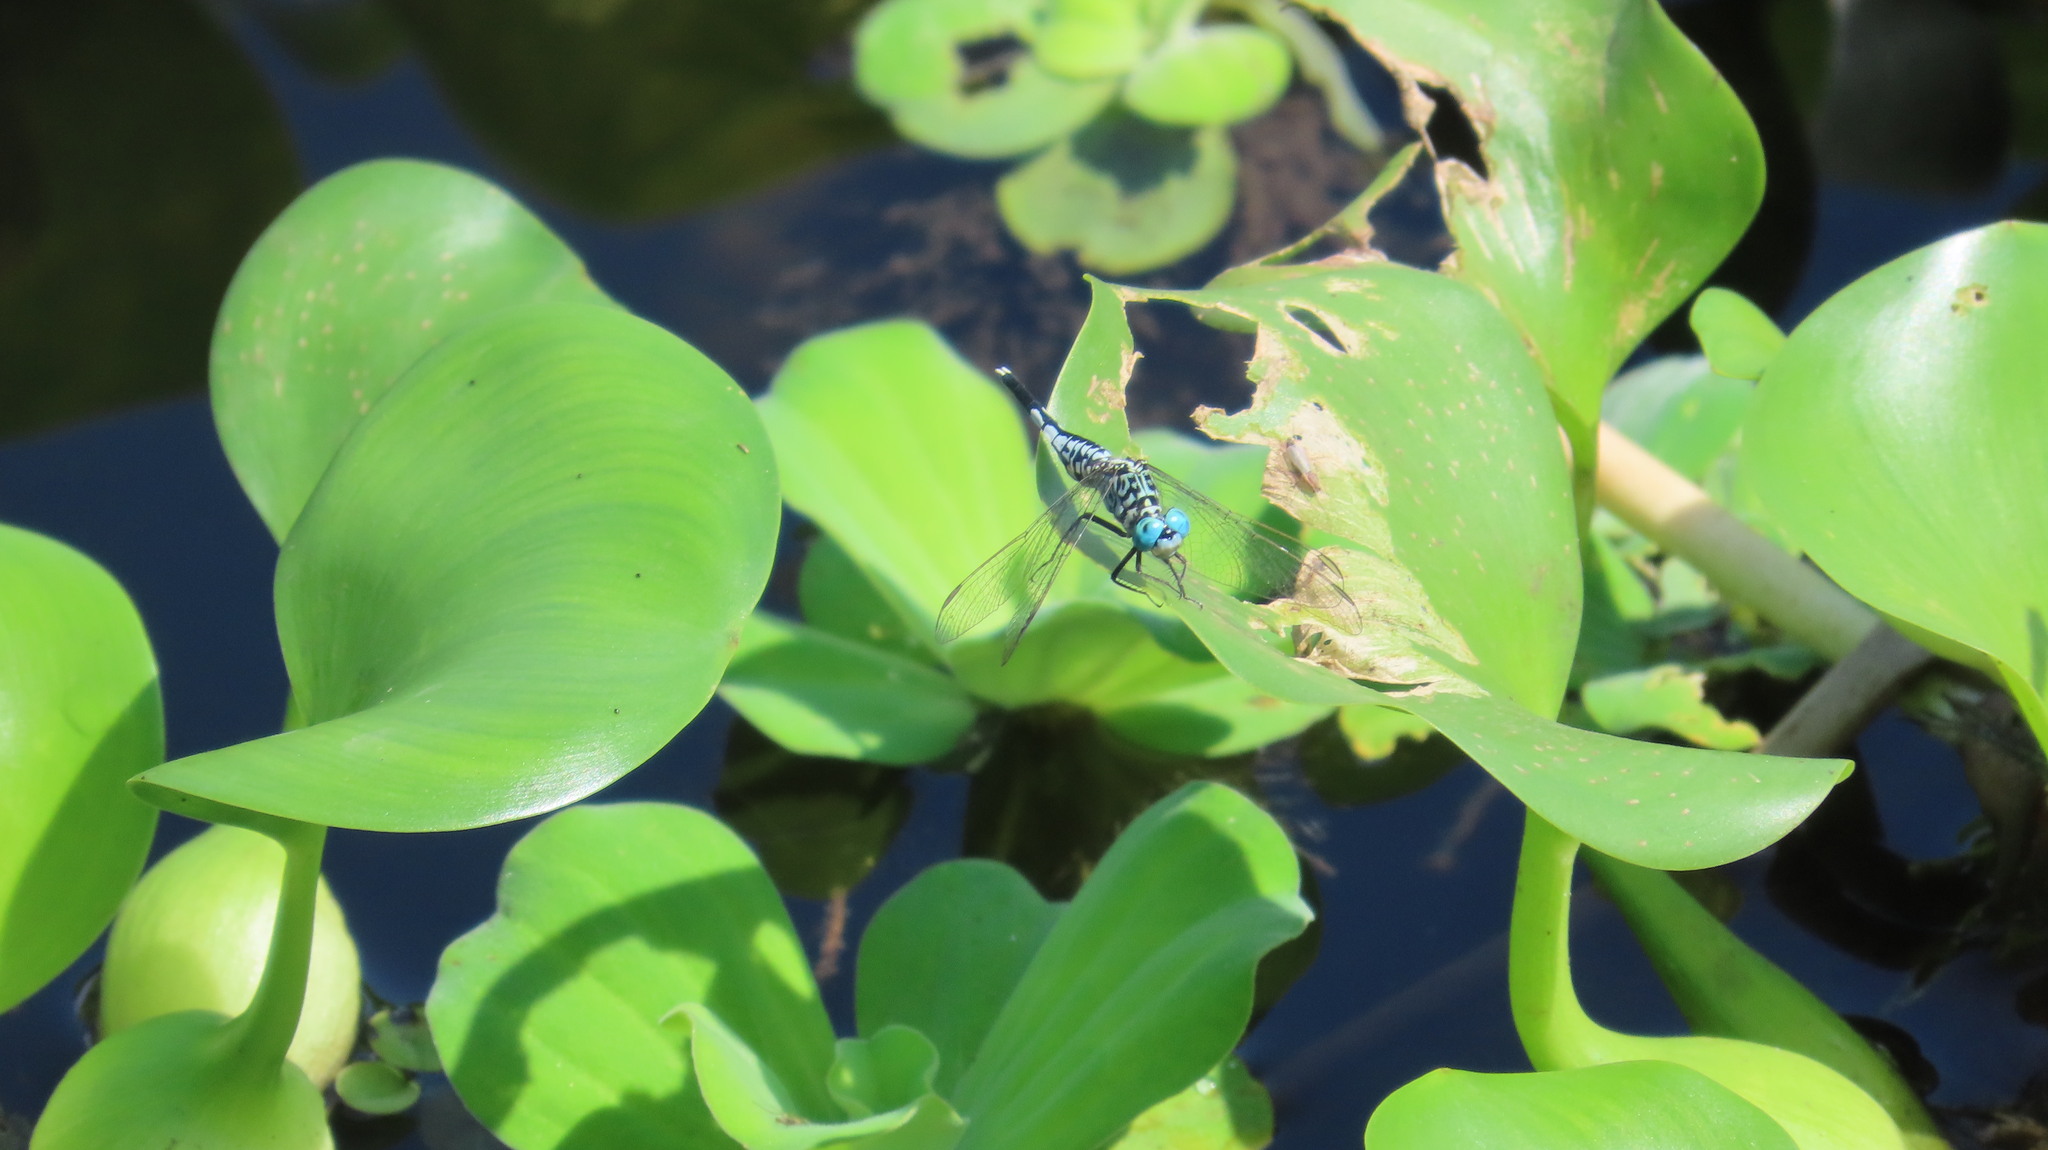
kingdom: Animalia
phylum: Arthropoda
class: Insecta
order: Odonata
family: Libellulidae
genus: Acisoma
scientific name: Acisoma panorpoides
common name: Asian pintail
